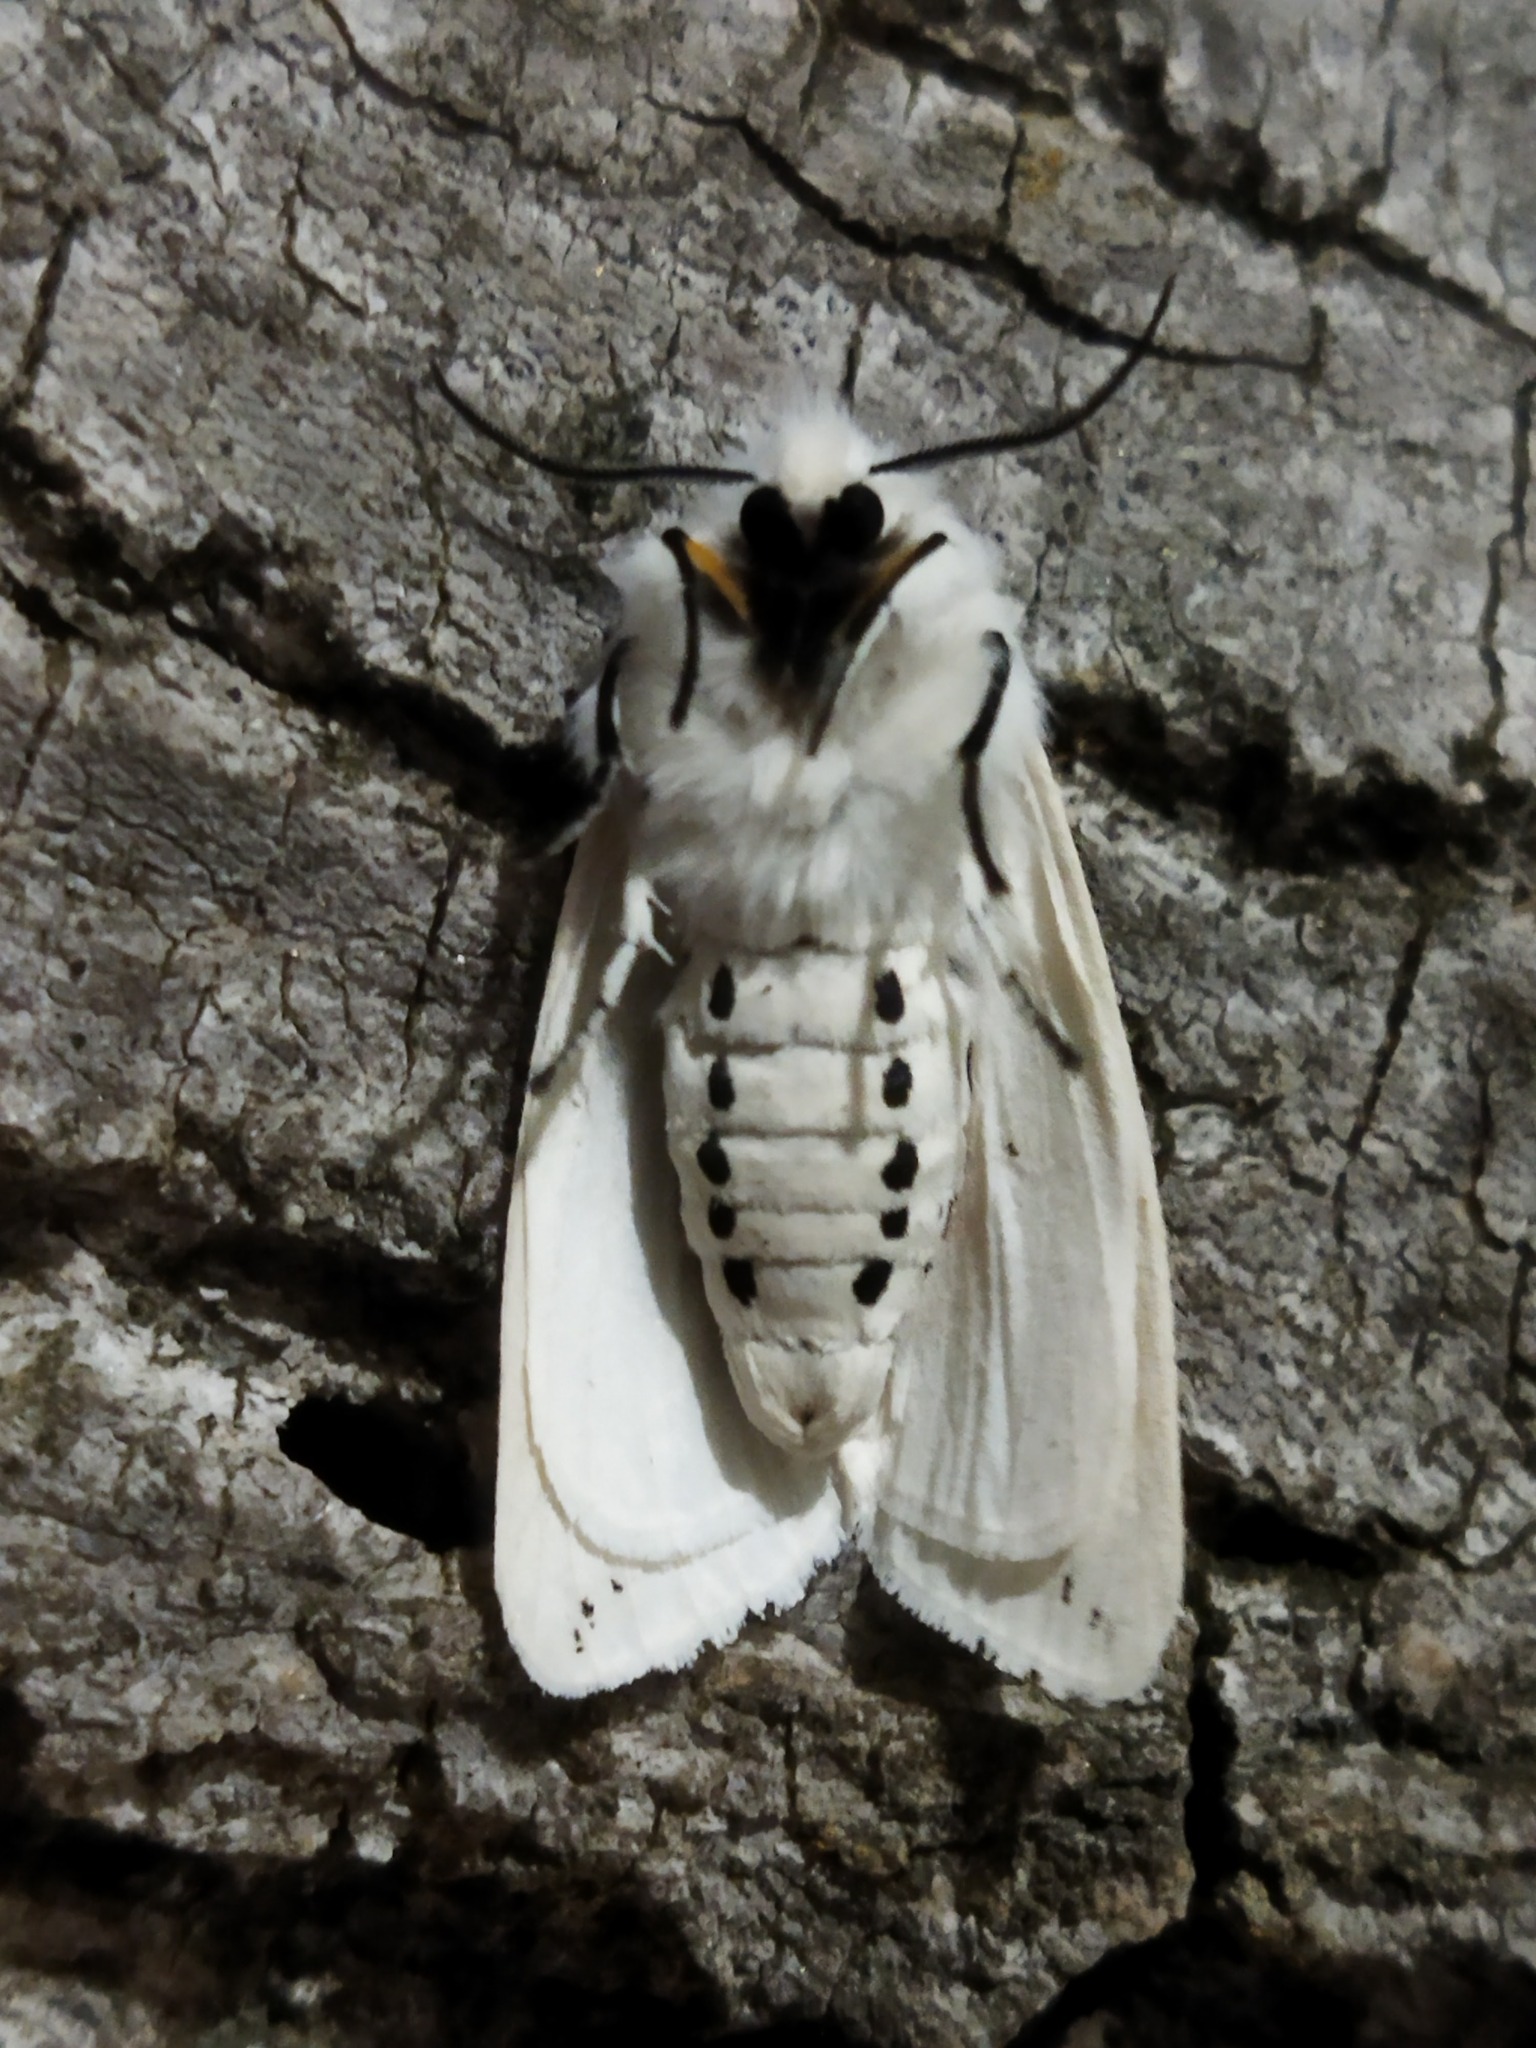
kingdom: Animalia
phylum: Arthropoda
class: Insecta
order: Lepidoptera
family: Erebidae
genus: Spilosoma
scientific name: Spilosoma lubricipeda
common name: White ermine
